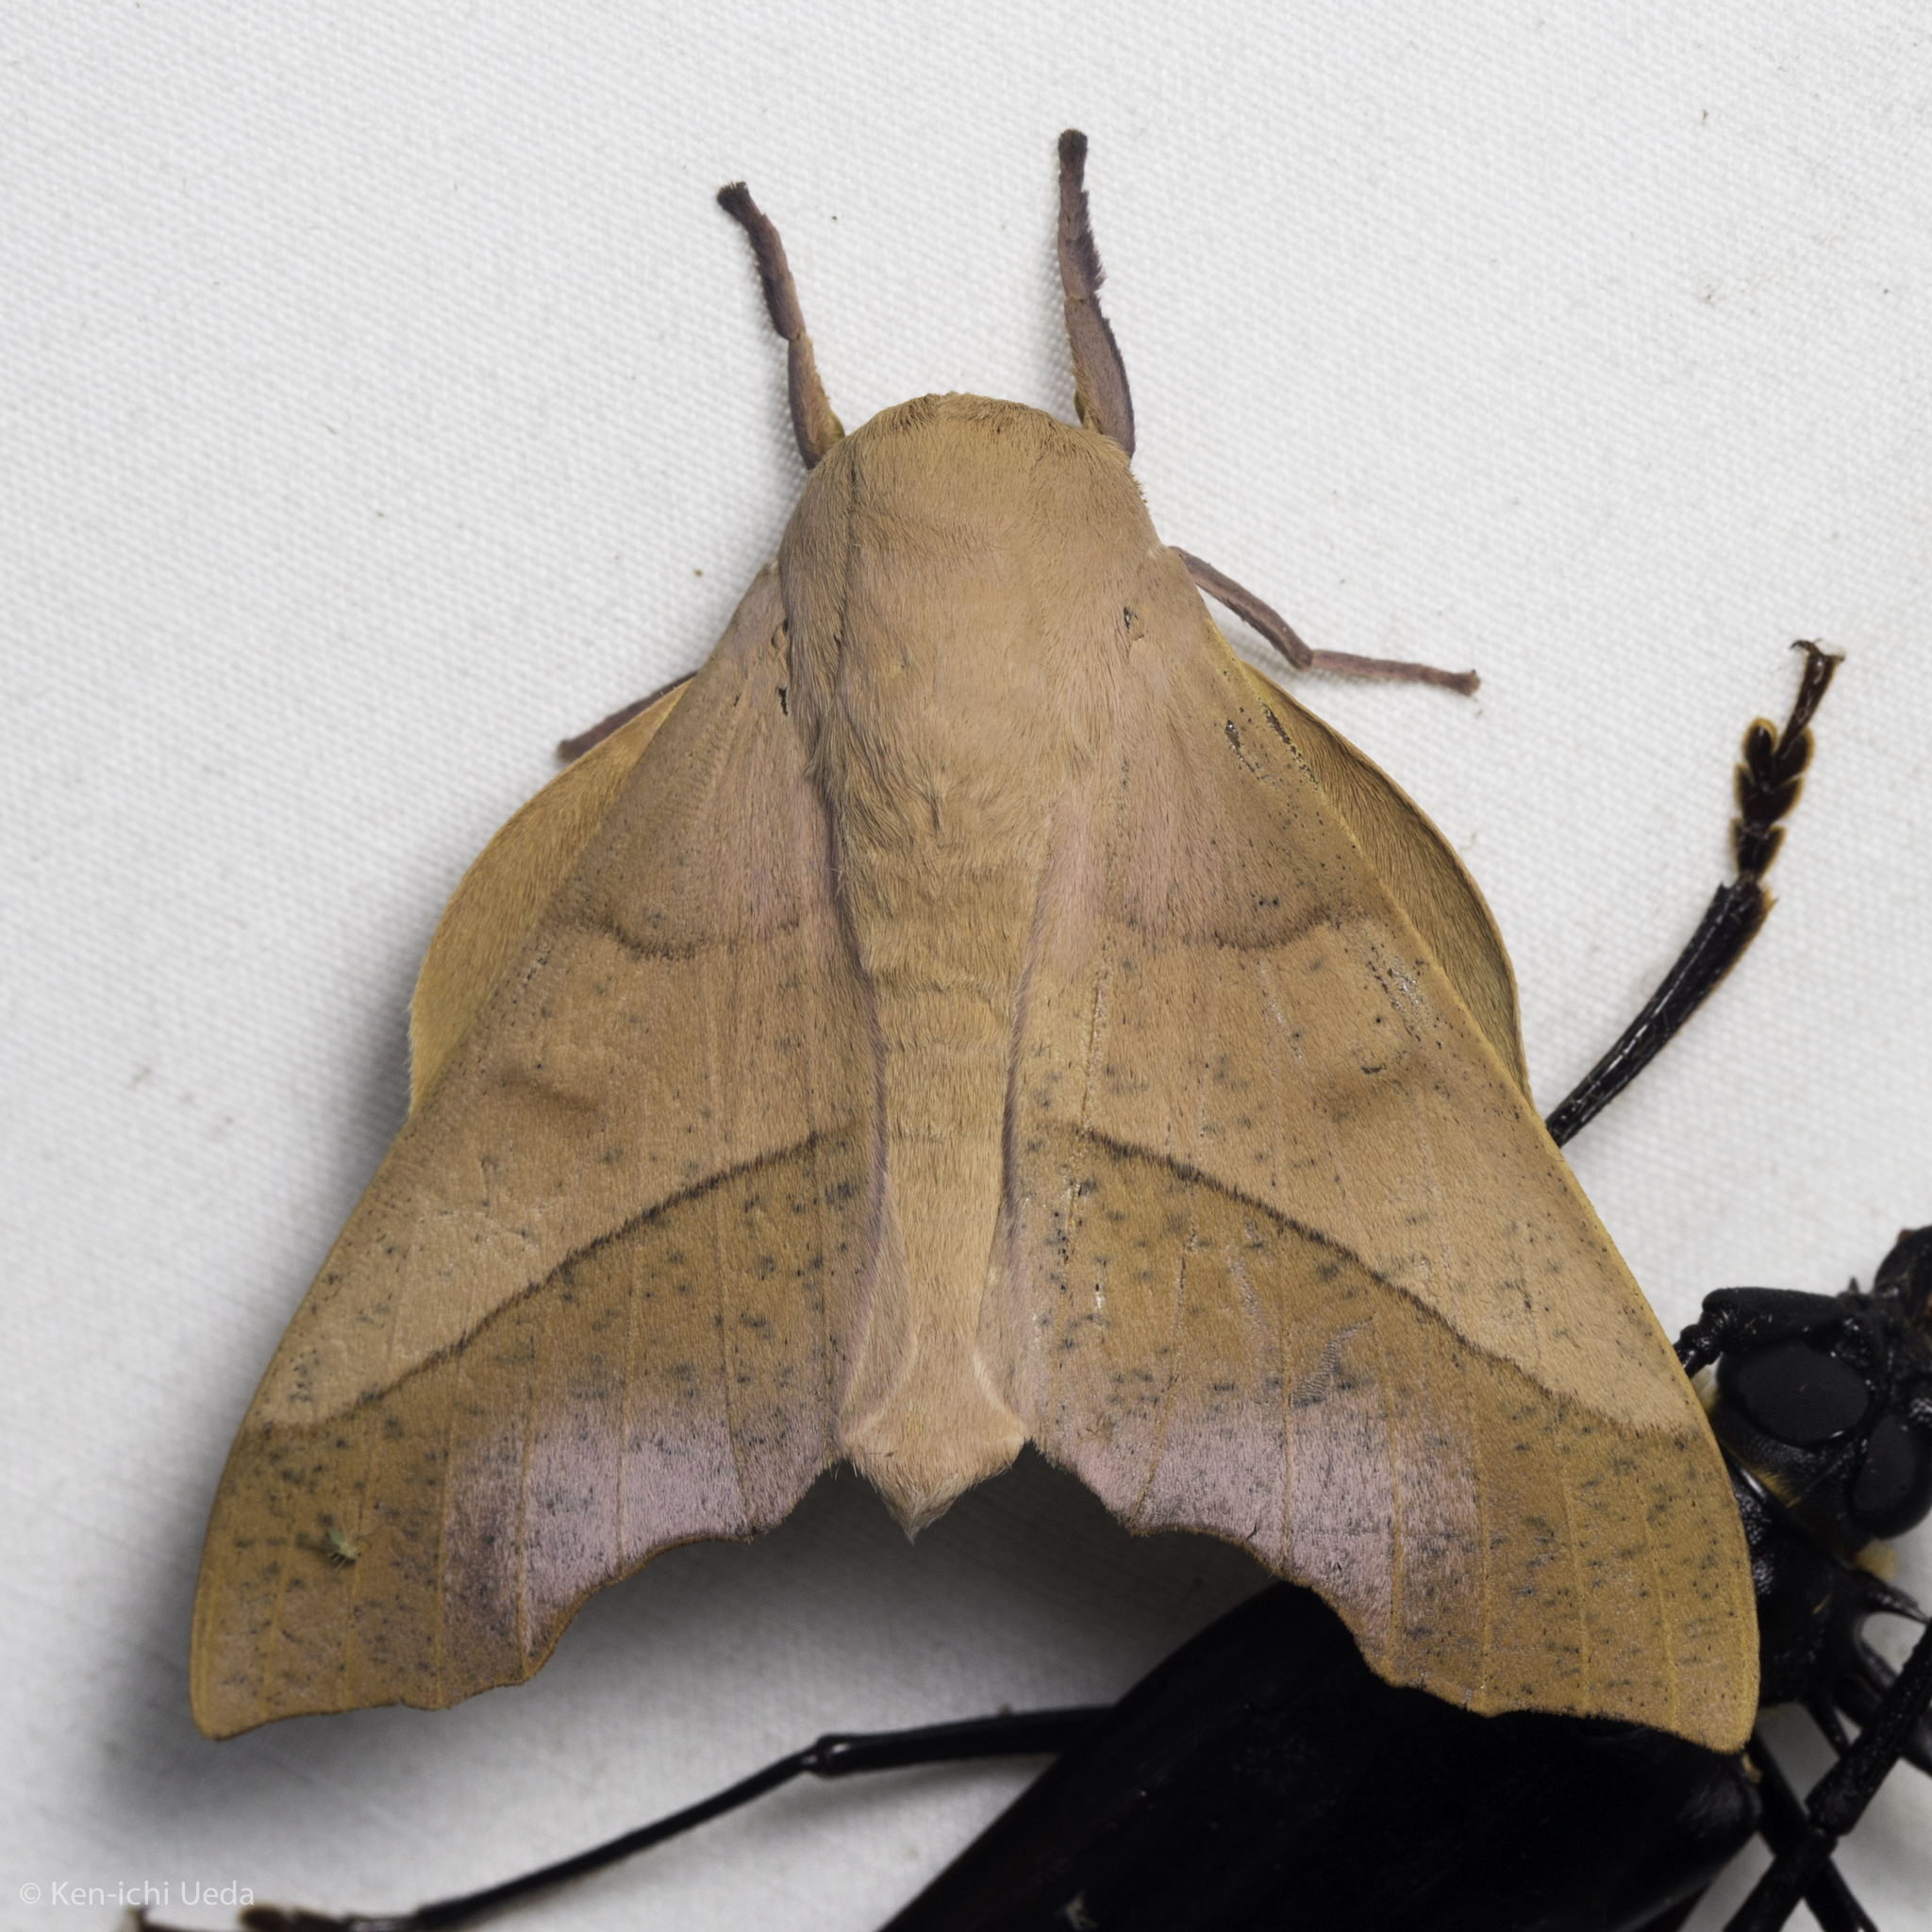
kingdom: Animalia
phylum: Arthropoda
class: Insecta
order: Lepidoptera
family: Saturniidae
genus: Syssphinx
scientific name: Syssphinx molina
